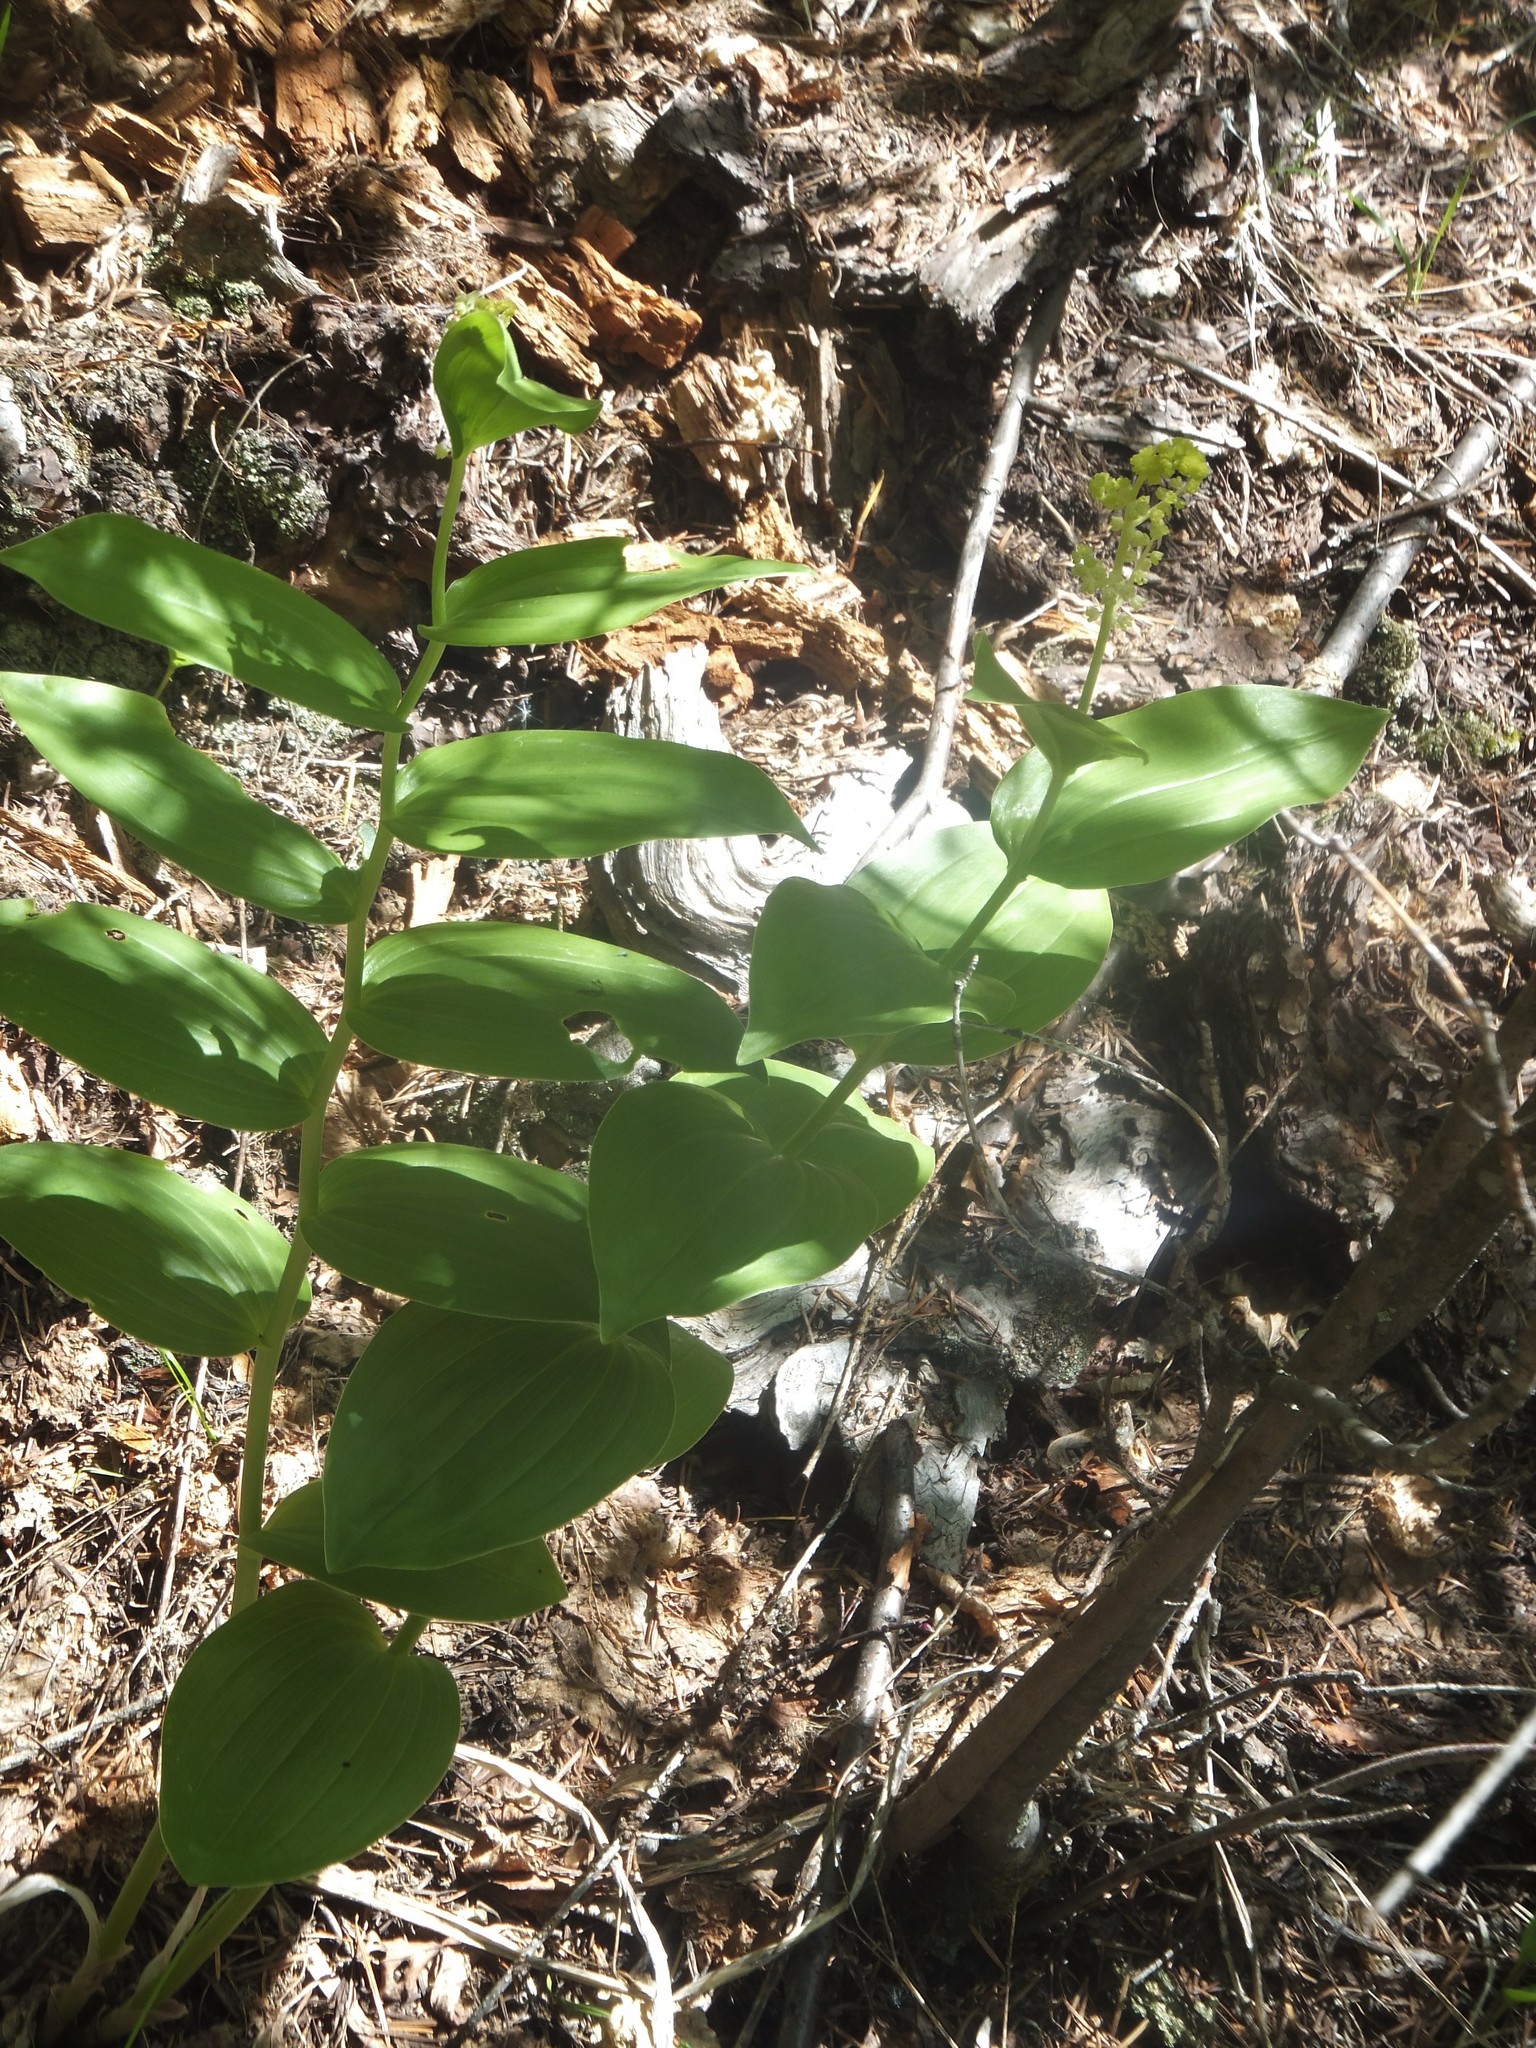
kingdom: Plantae
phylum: Tracheophyta
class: Liliopsida
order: Asparagales
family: Asparagaceae
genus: Maianthemum
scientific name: Maianthemum racemosum
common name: False spikenard
